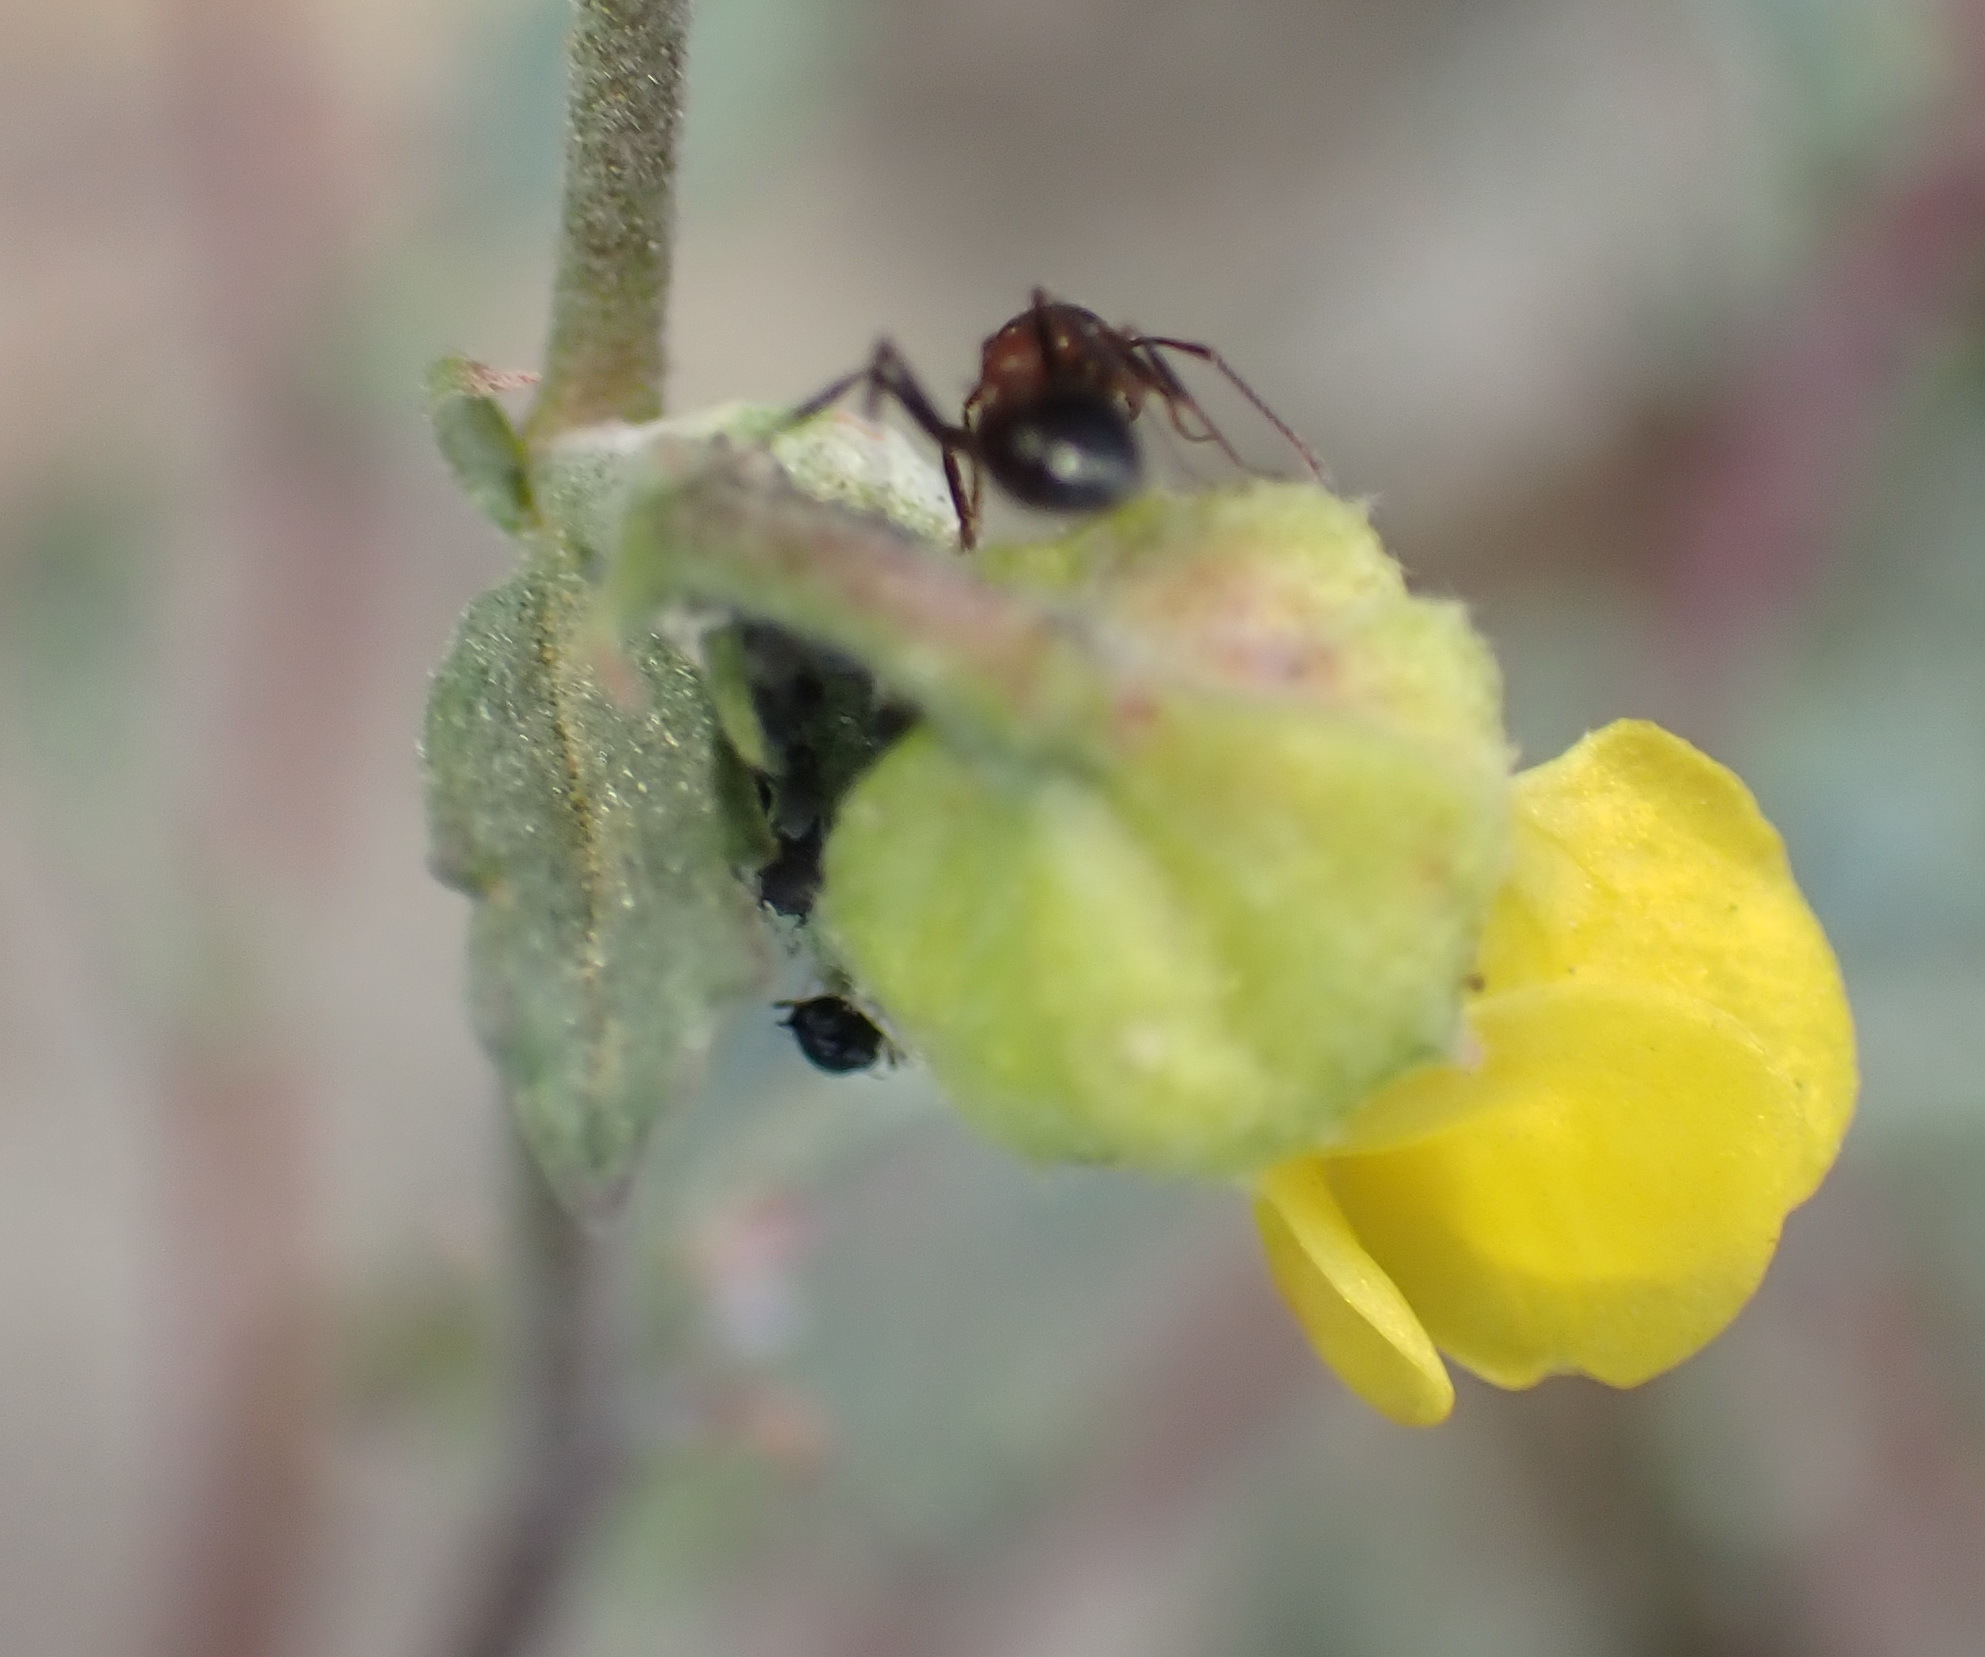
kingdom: Plantae
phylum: Tracheophyta
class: Magnoliopsida
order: Malvales
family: Malvaceae
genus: Hermannia
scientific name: Hermannia desertorum
